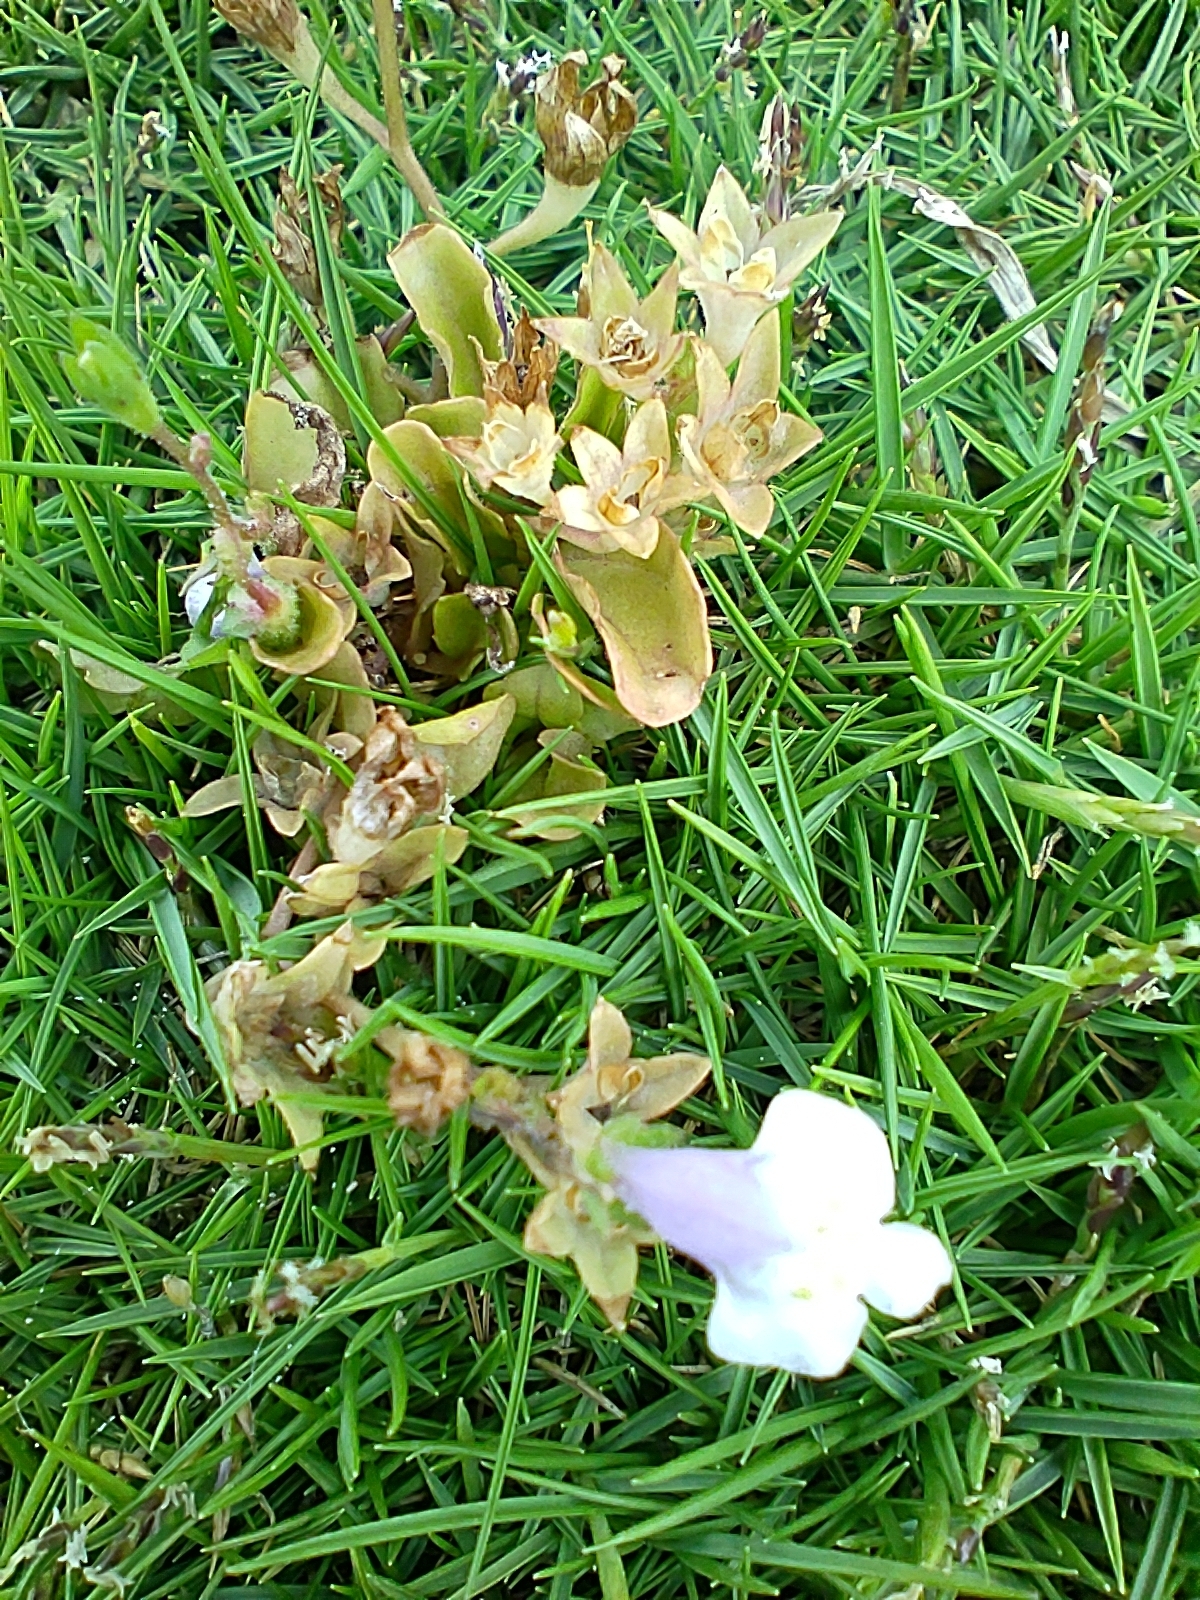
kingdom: Plantae
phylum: Tracheophyta
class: Magnoliopsida
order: Lamiales
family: Mazaceae
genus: Mazus
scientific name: Mazus pumilus
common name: Japanese mazus
